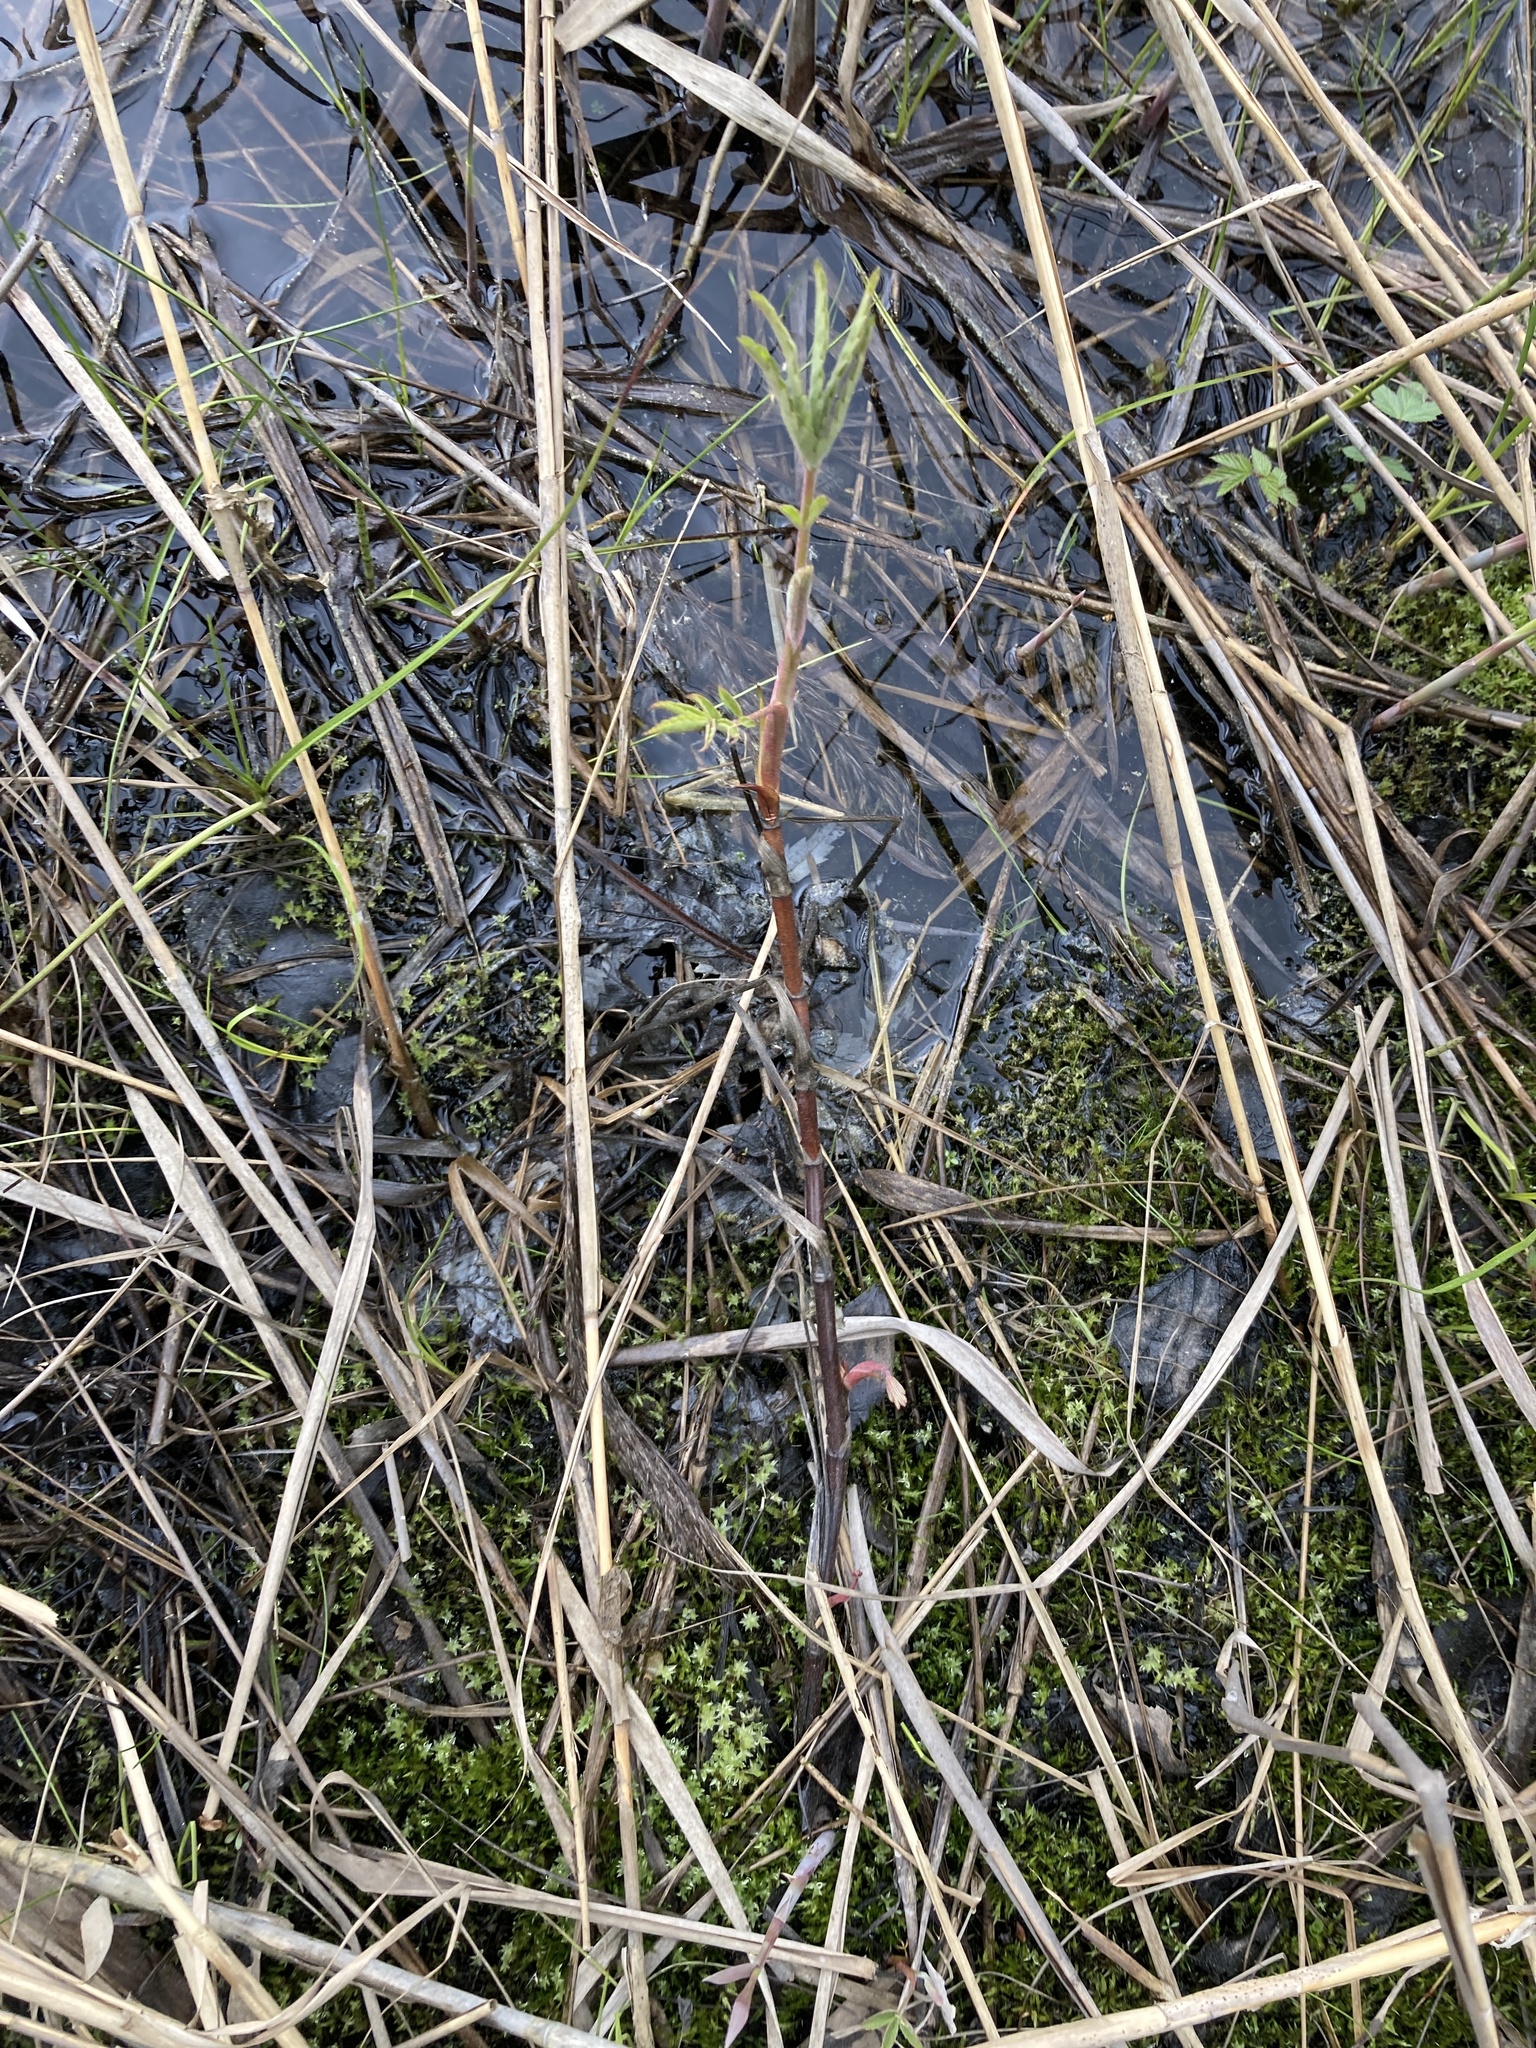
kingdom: Plantae
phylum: Tracheophyta
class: Magnoliopsida
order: Rosales
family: Rosaceae
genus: Comarum
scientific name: Comarum palustre
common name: Marsh cinquefoil
